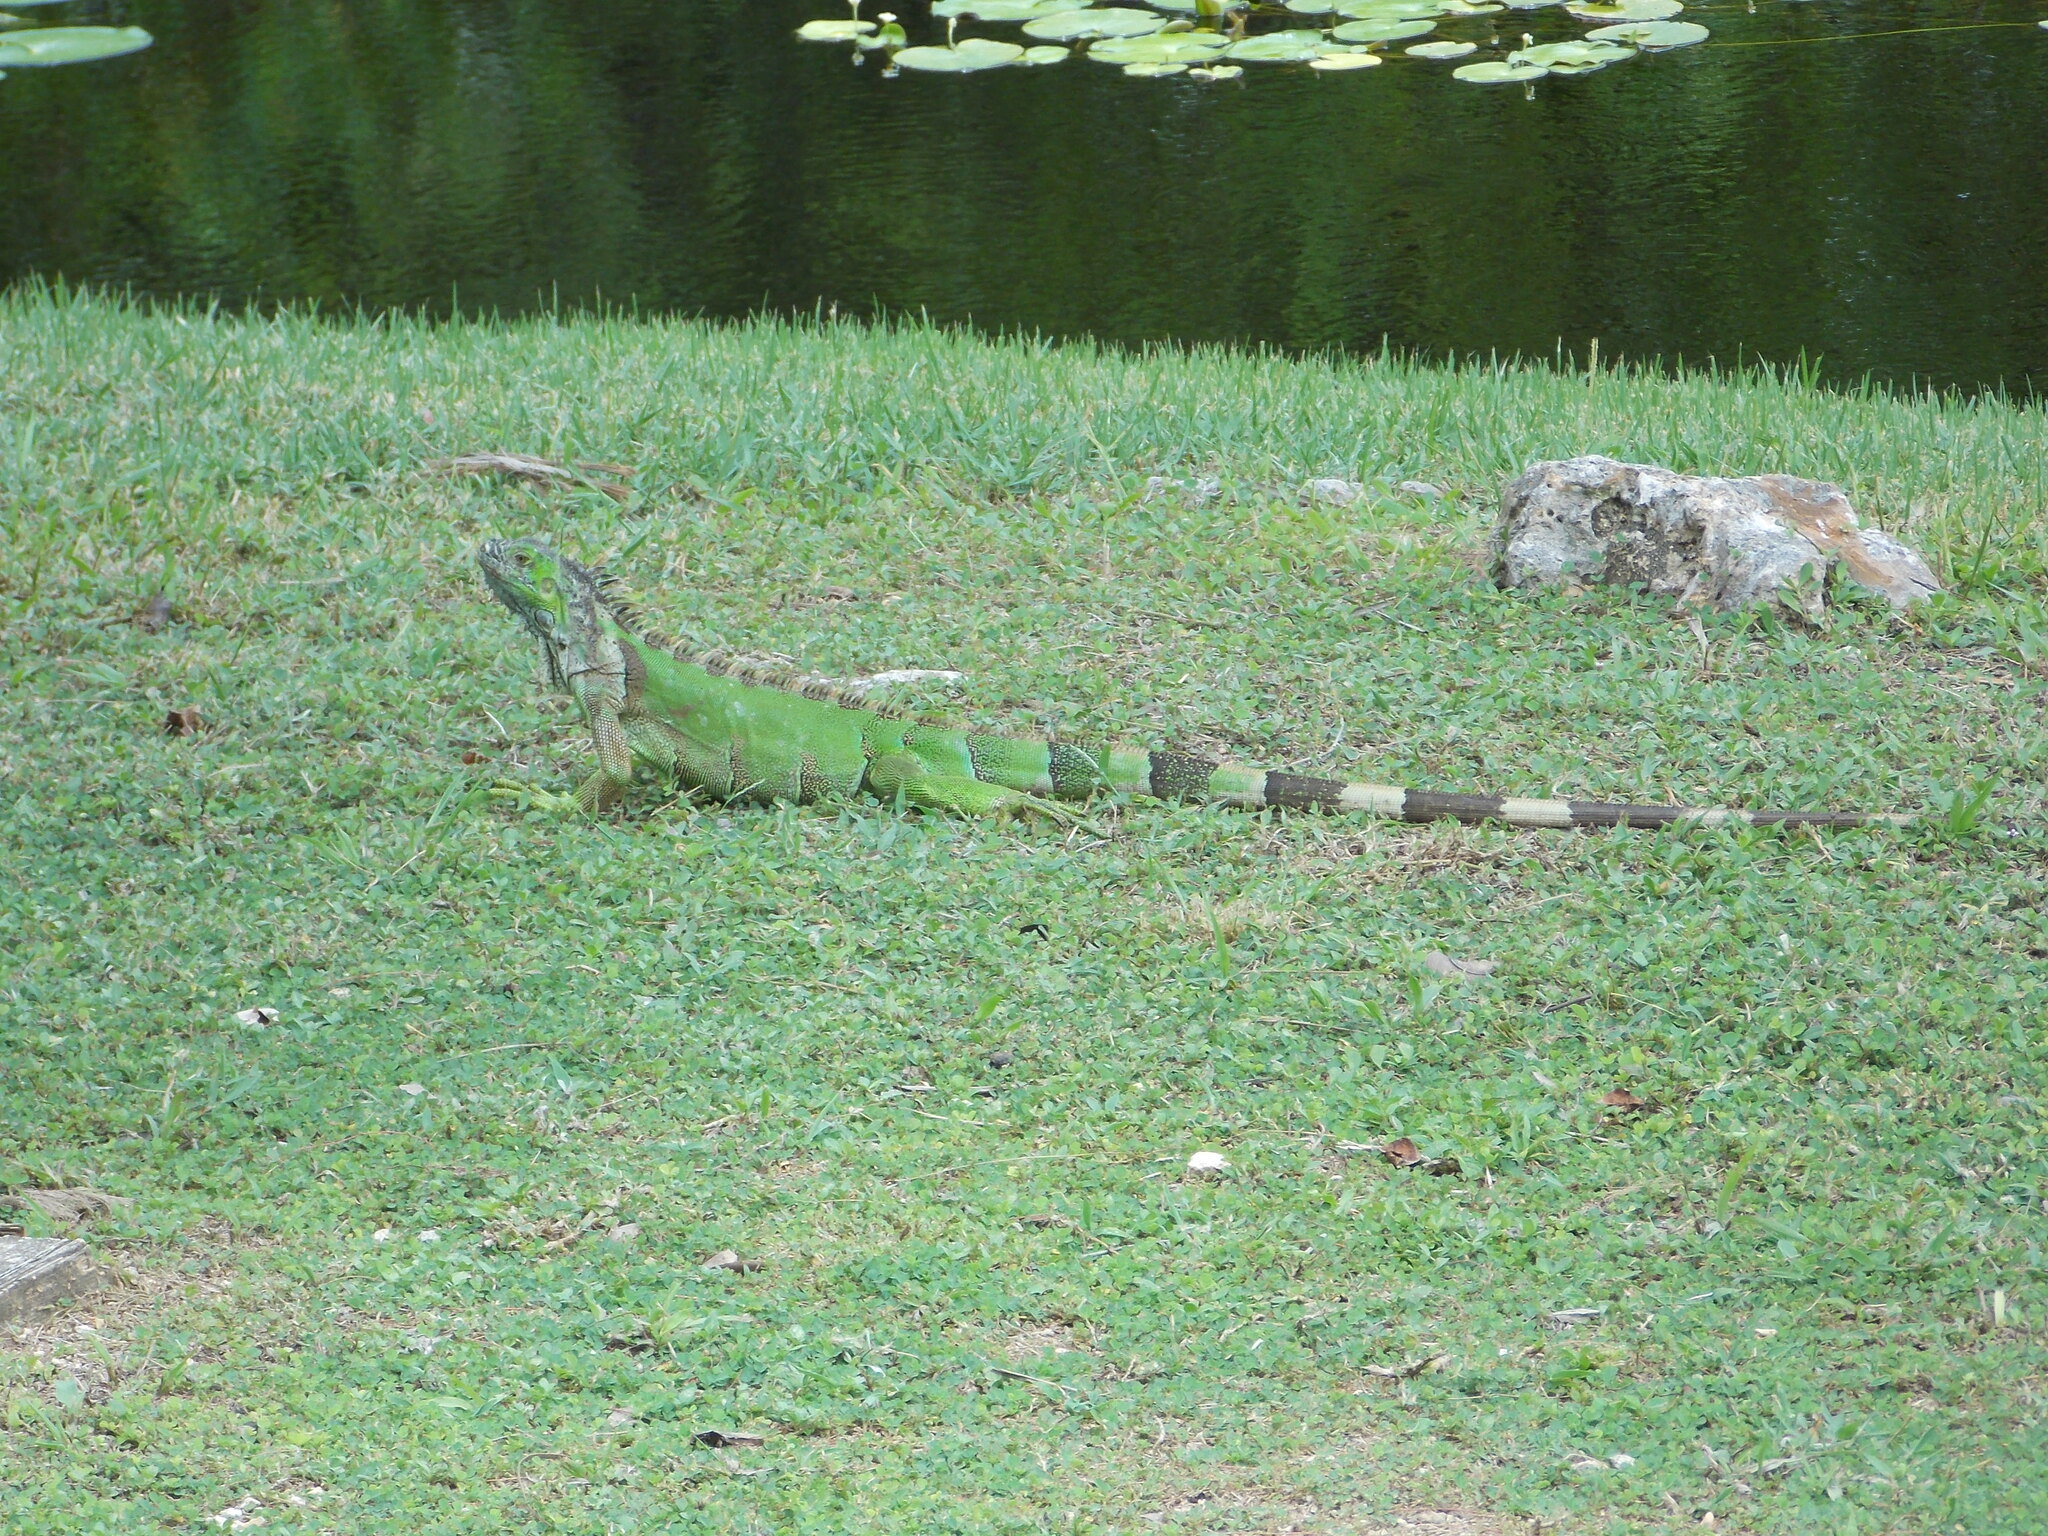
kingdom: Animalia
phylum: Chordata
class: Squamata
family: Iguanidae
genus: Iguana
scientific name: Iguana iguana
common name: Green iguana
